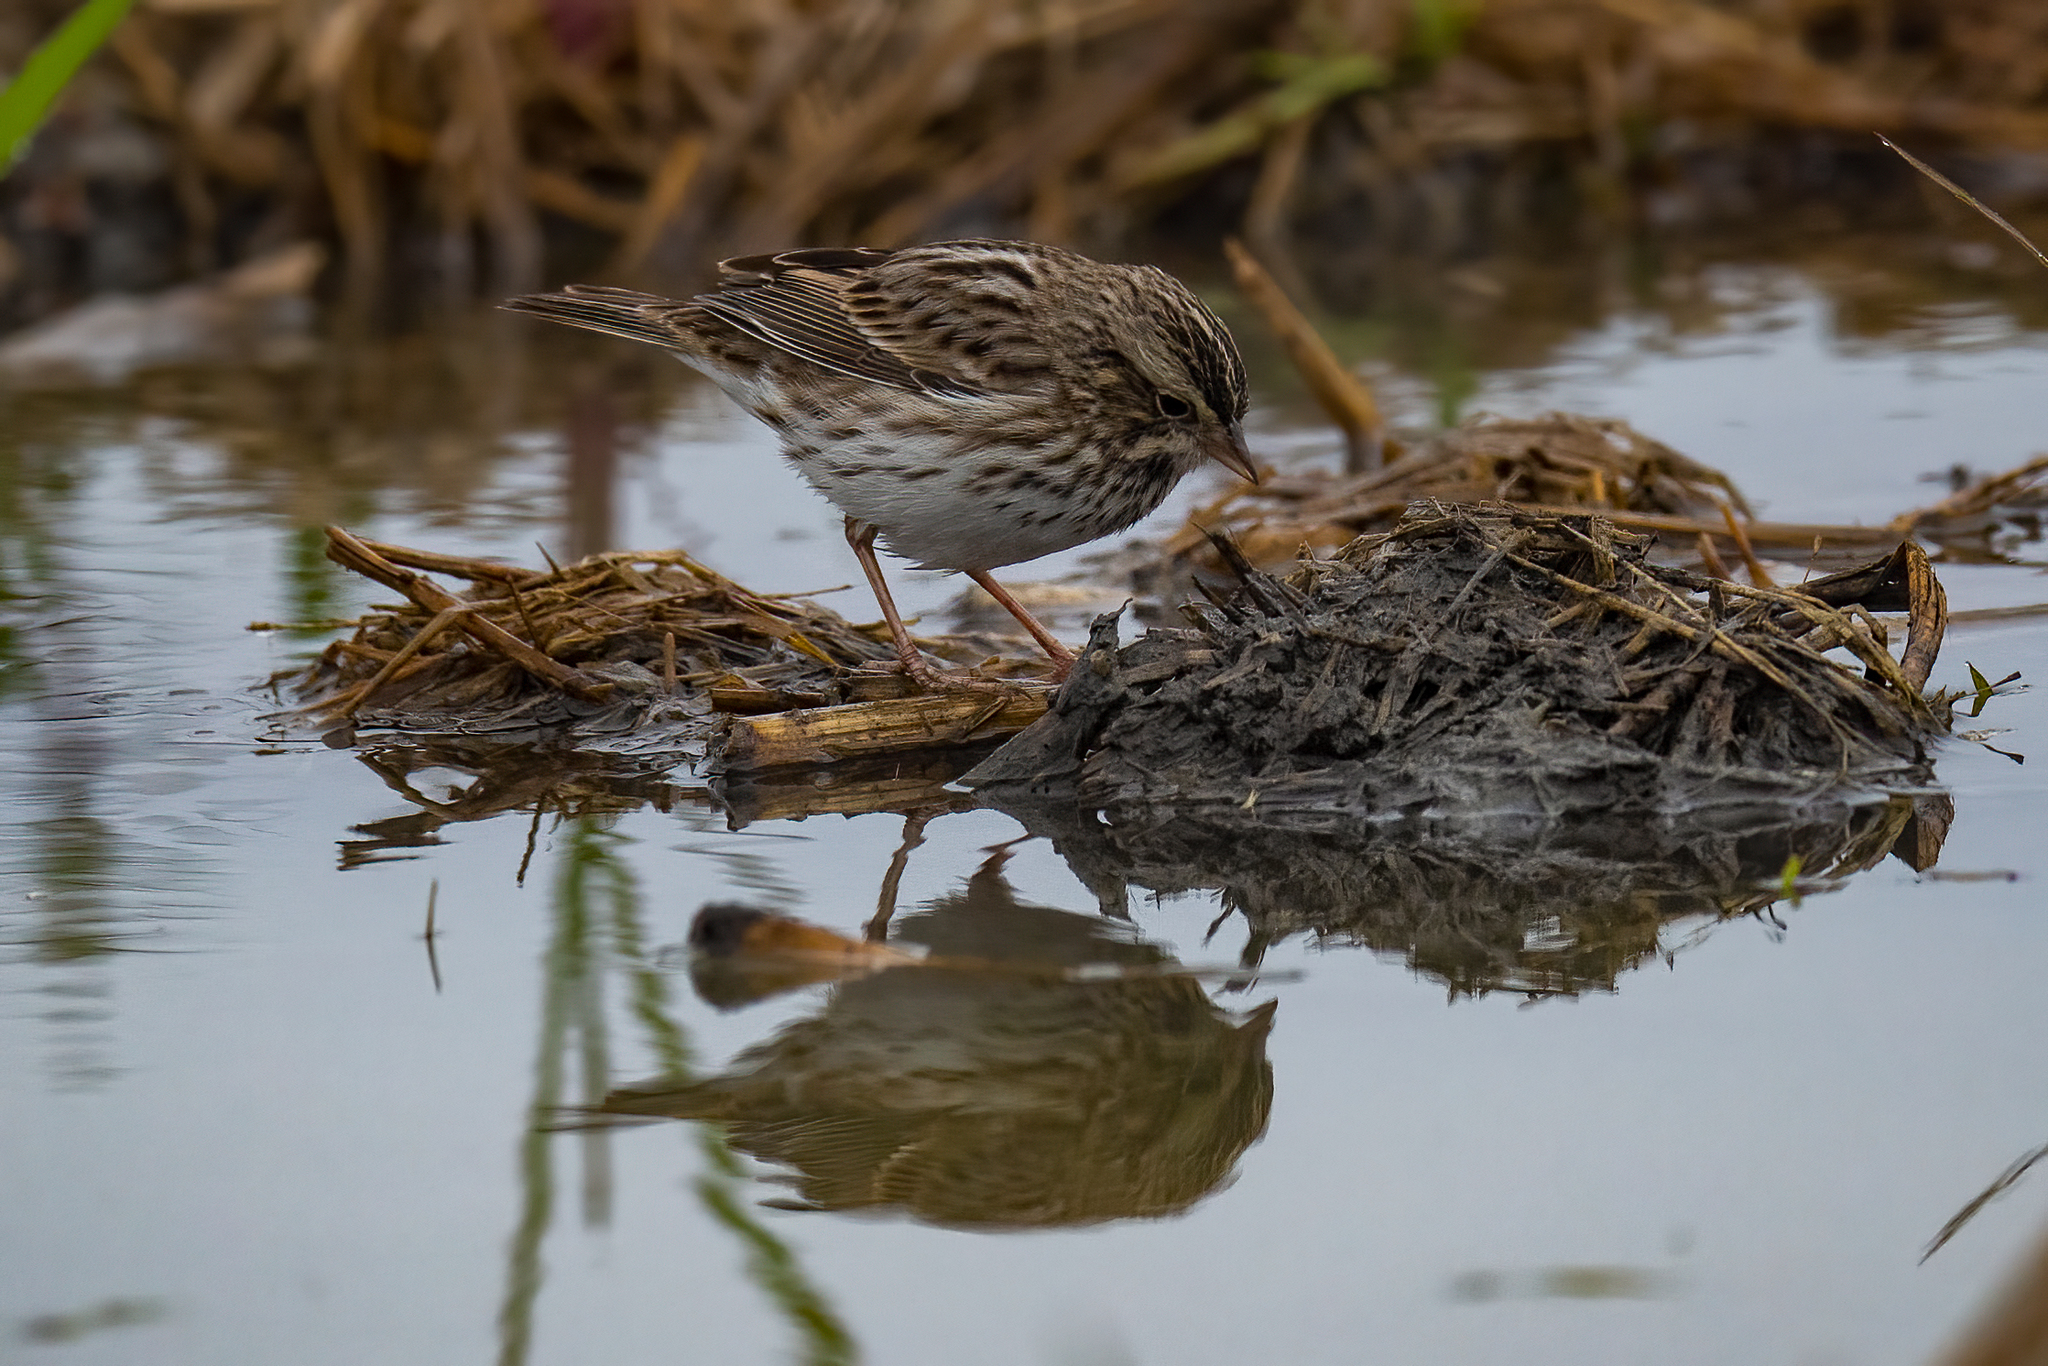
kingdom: Animalia
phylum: Chordata
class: Aves
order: Passeriformes
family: Passerellidae
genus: Passerculus
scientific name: Passerculus sandwichensis
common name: Savannah sparrow
